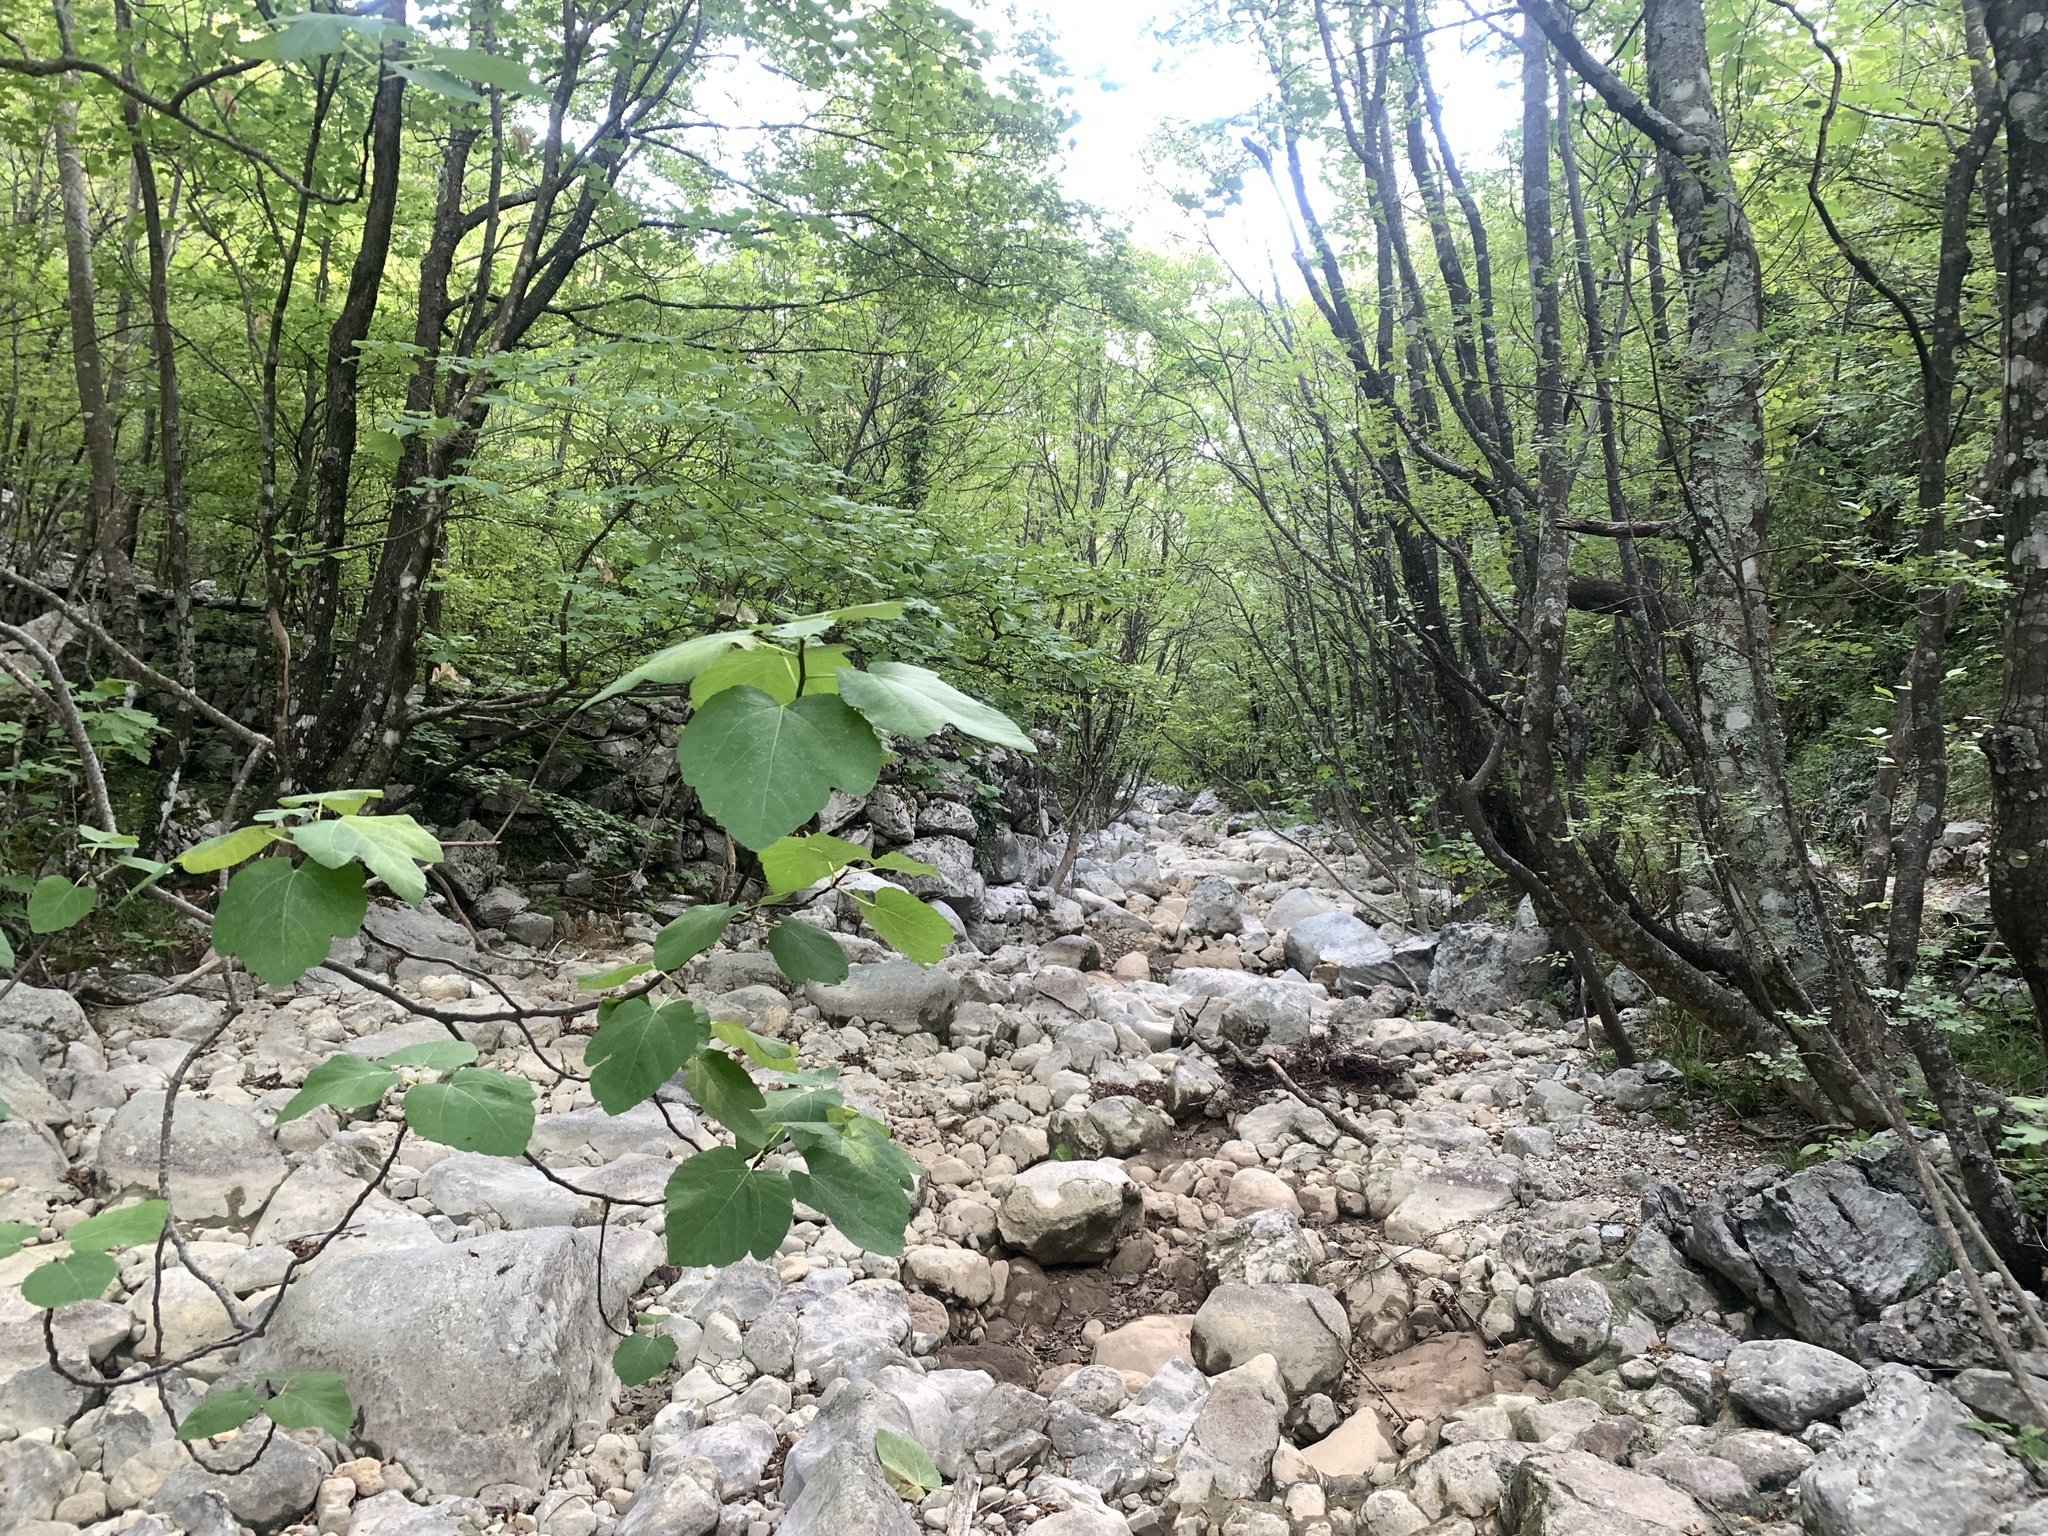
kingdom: Plantae
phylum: Tracheophyta
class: Magnoliopsida
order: Rosales
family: Moraceae
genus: Ficus
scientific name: Ficus carica
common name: Fig
